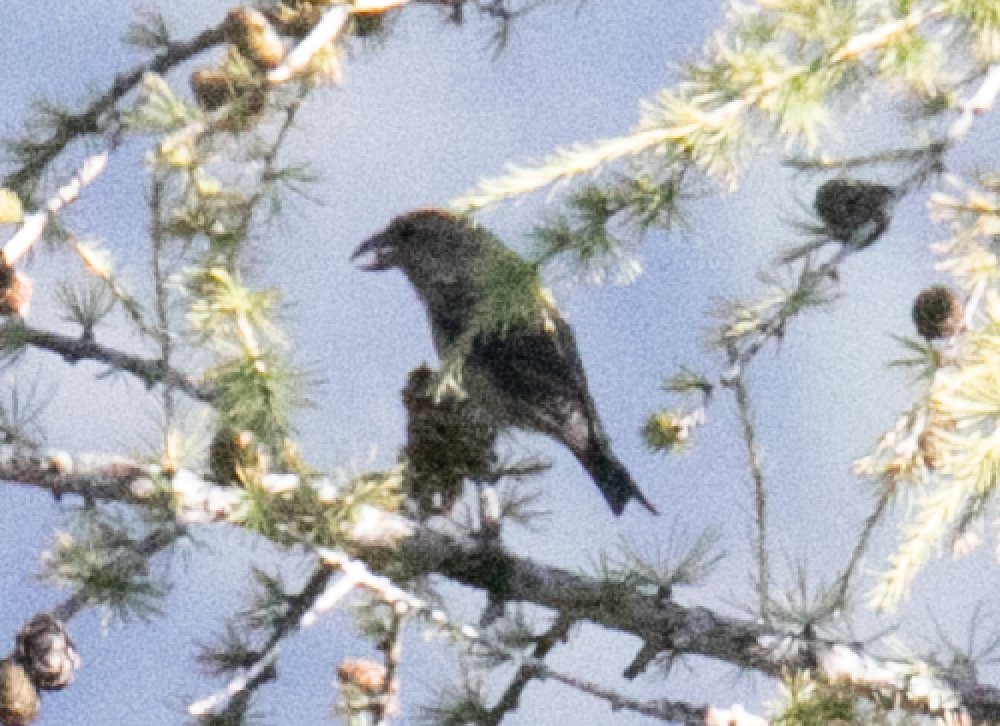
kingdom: Animalia
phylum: Chordata
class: Aves
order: Passeriformes
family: Fringillidae
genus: Loxia
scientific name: Loxia curvirostra
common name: Red crossbill
